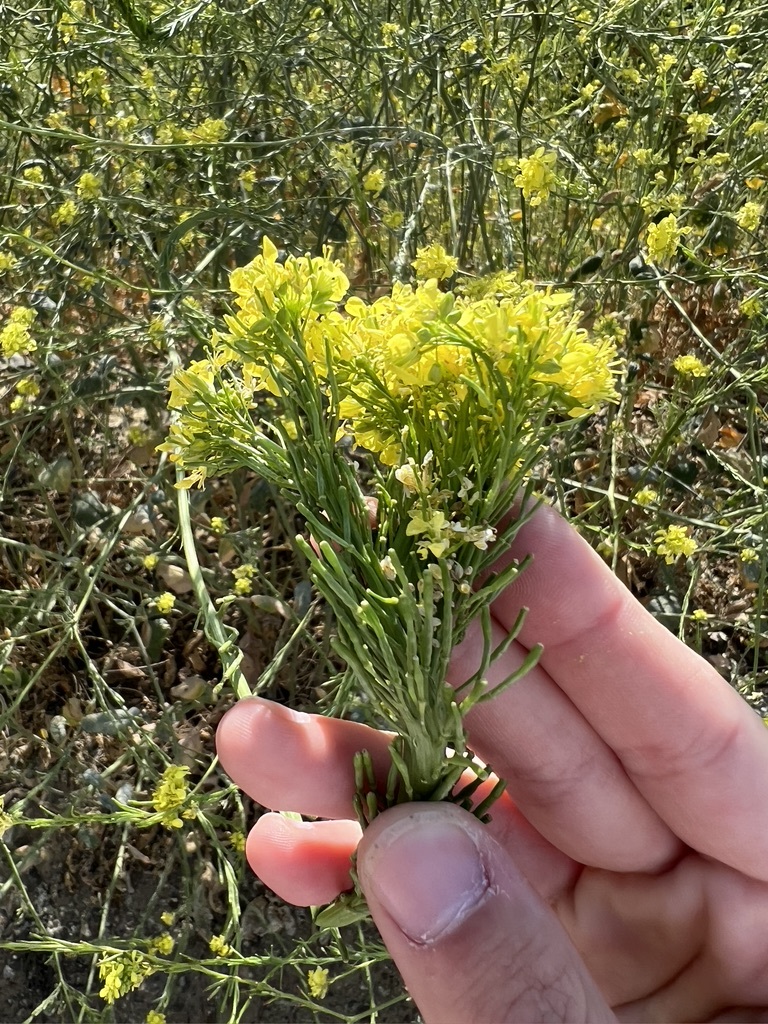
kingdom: Plantae
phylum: Tracheophyta
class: Magnoliopsida
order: Brassicales
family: Brassicaceae
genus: Hirschfeldia
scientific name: Hirschfeldia incana
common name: Hoary mustard
